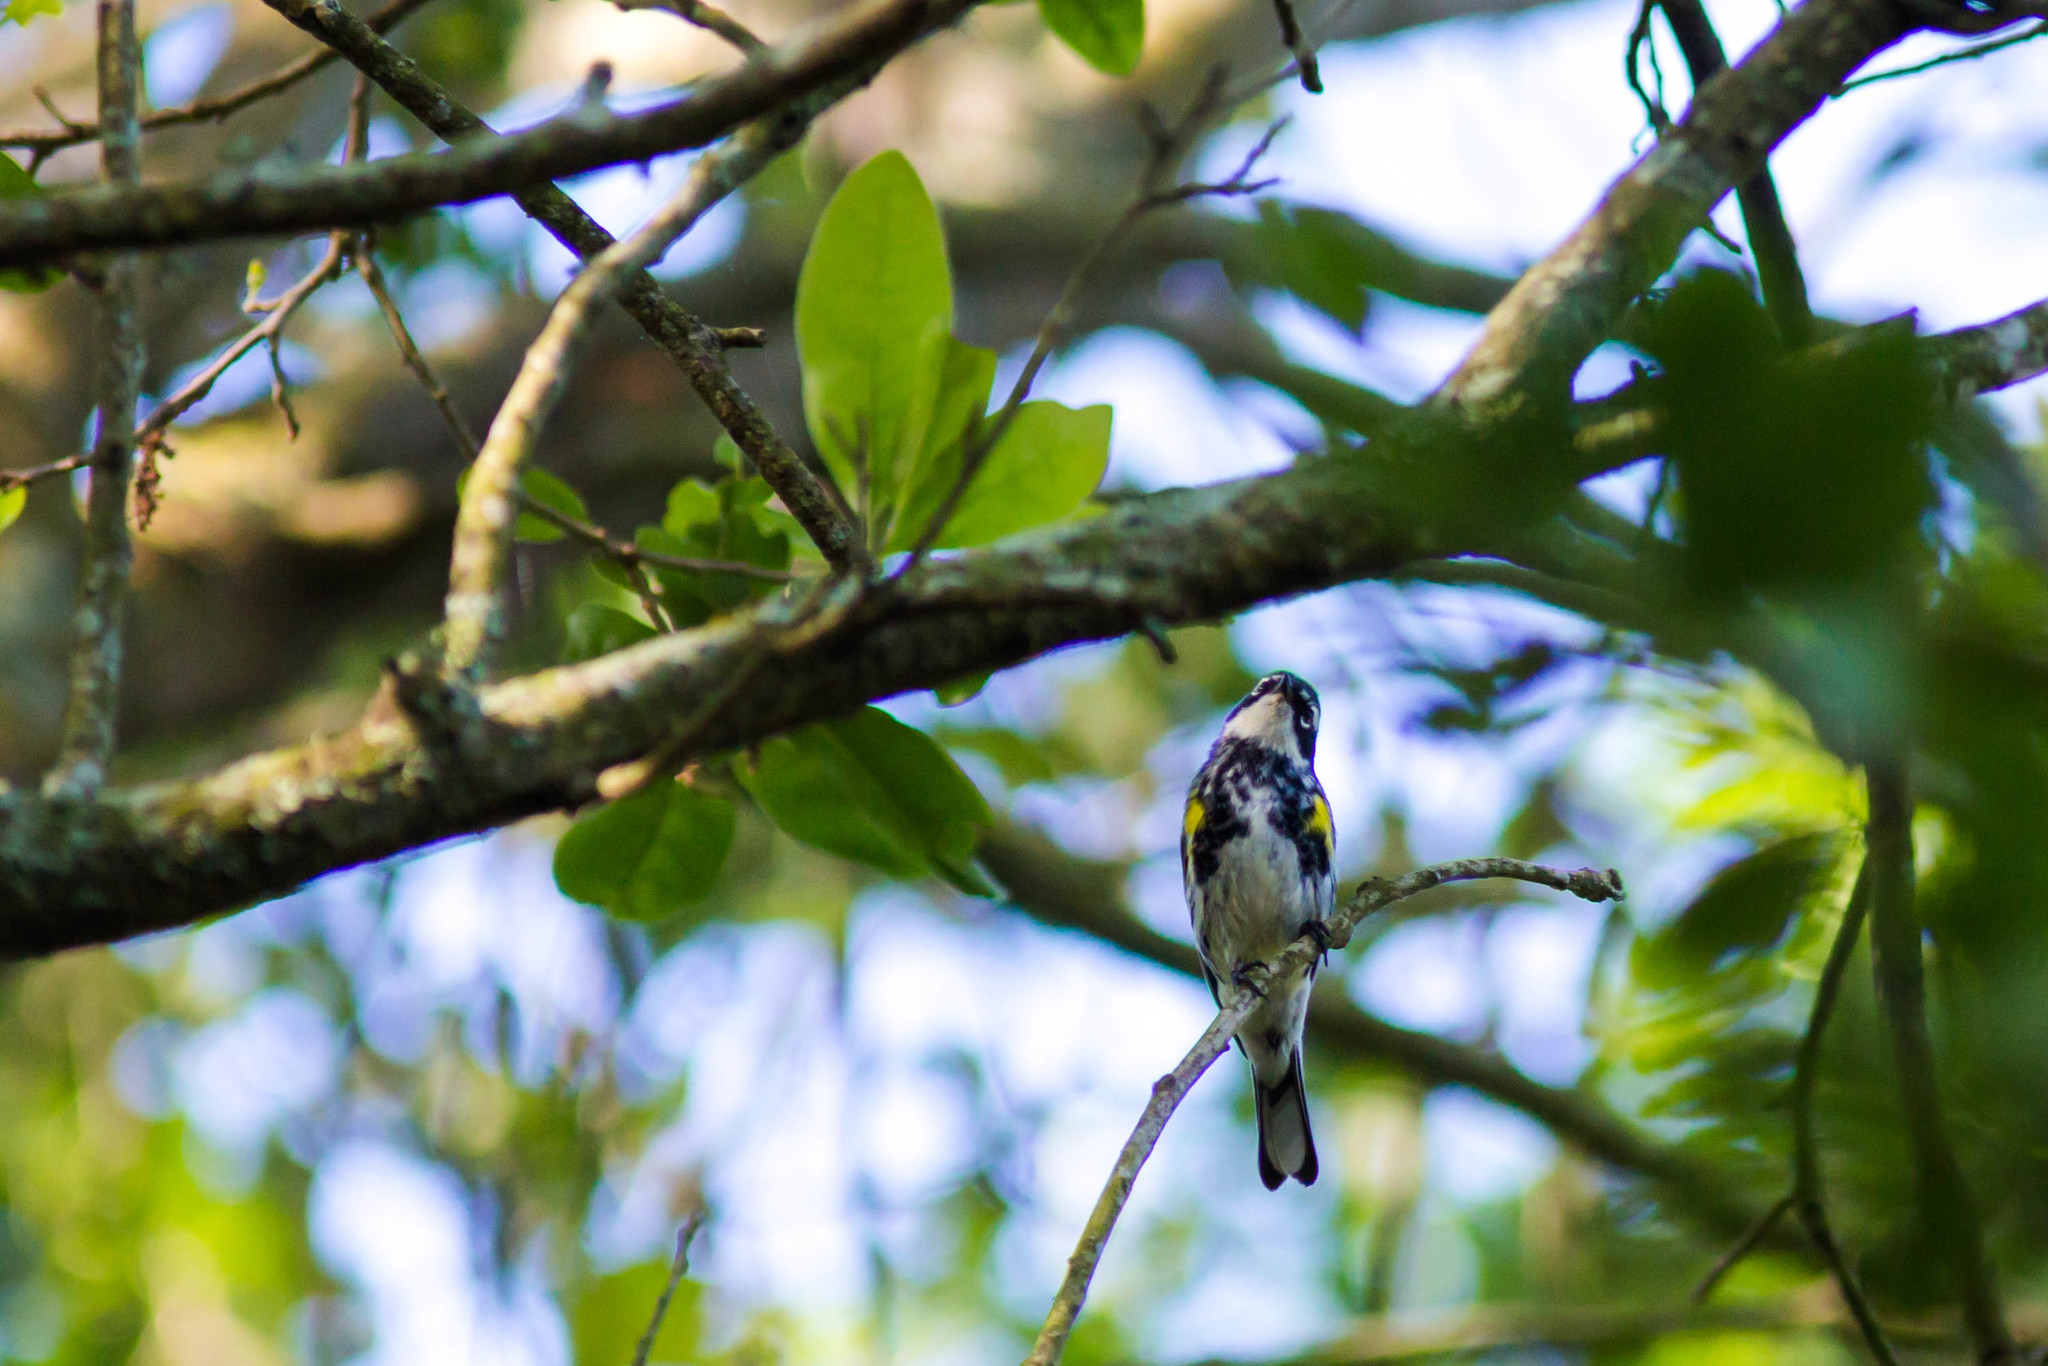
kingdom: Animalia
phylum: Chordata
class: Aves
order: Passeriformes
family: Parulidae
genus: Setophaga
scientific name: Setophaga coronata
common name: Myrtle warbler
